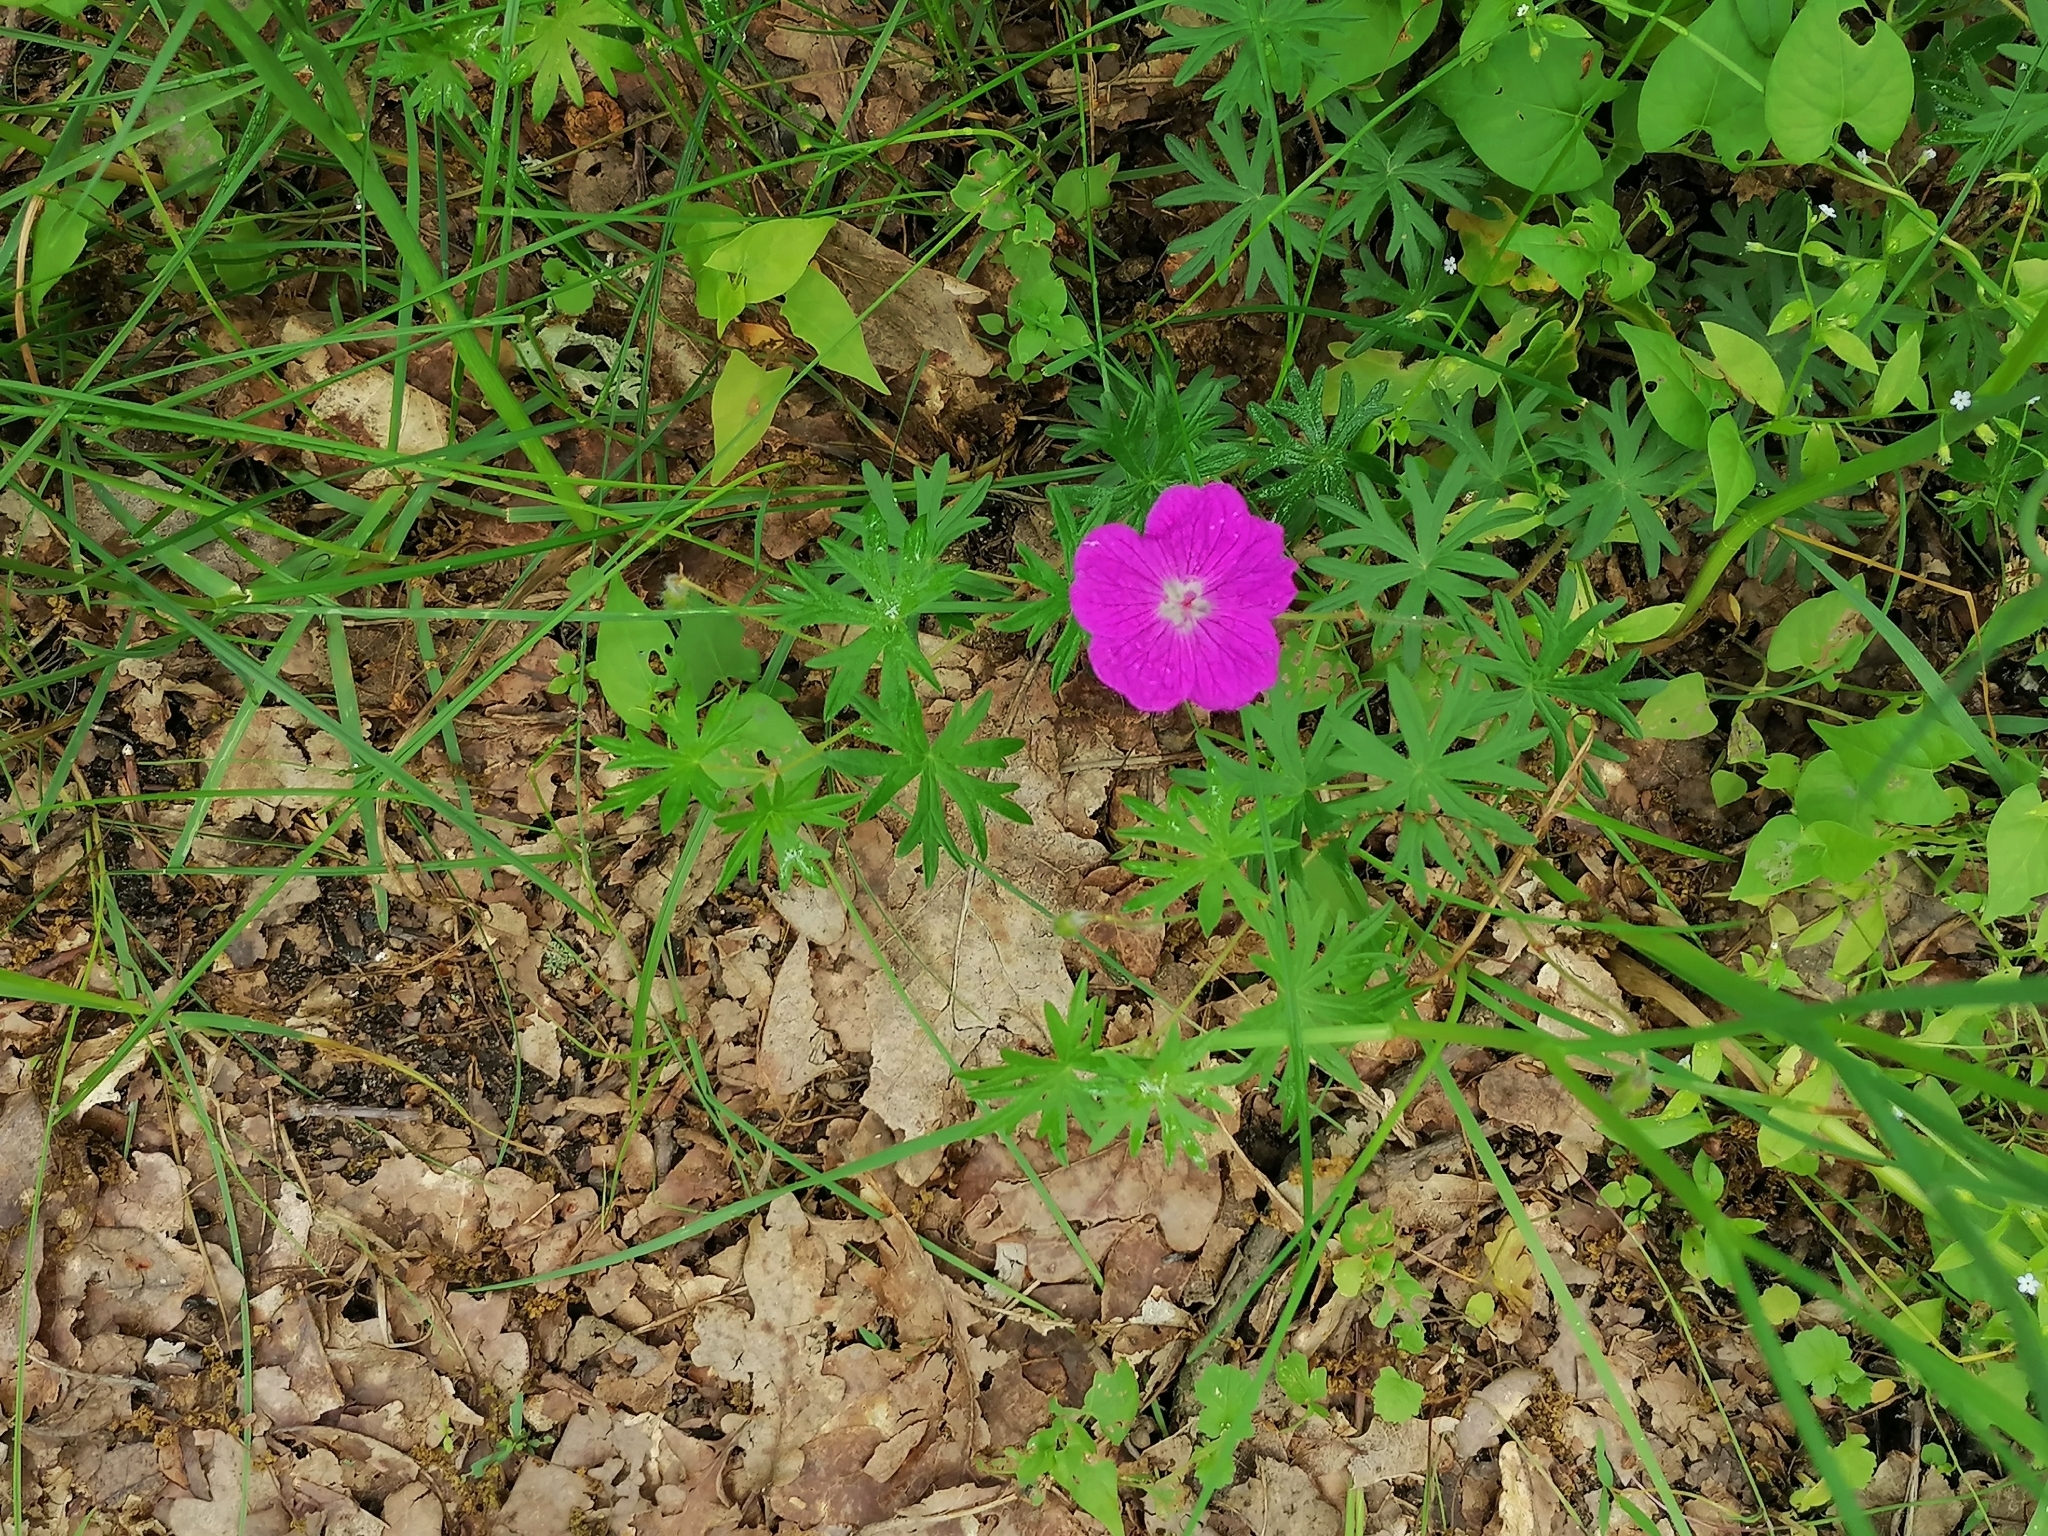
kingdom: Plantae
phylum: Tracheophyta
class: Magnoliopsida
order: Geraniales
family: Geraniaceae
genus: Geranium
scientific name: Geranium sanguineum
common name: Bloody crane's-bill
